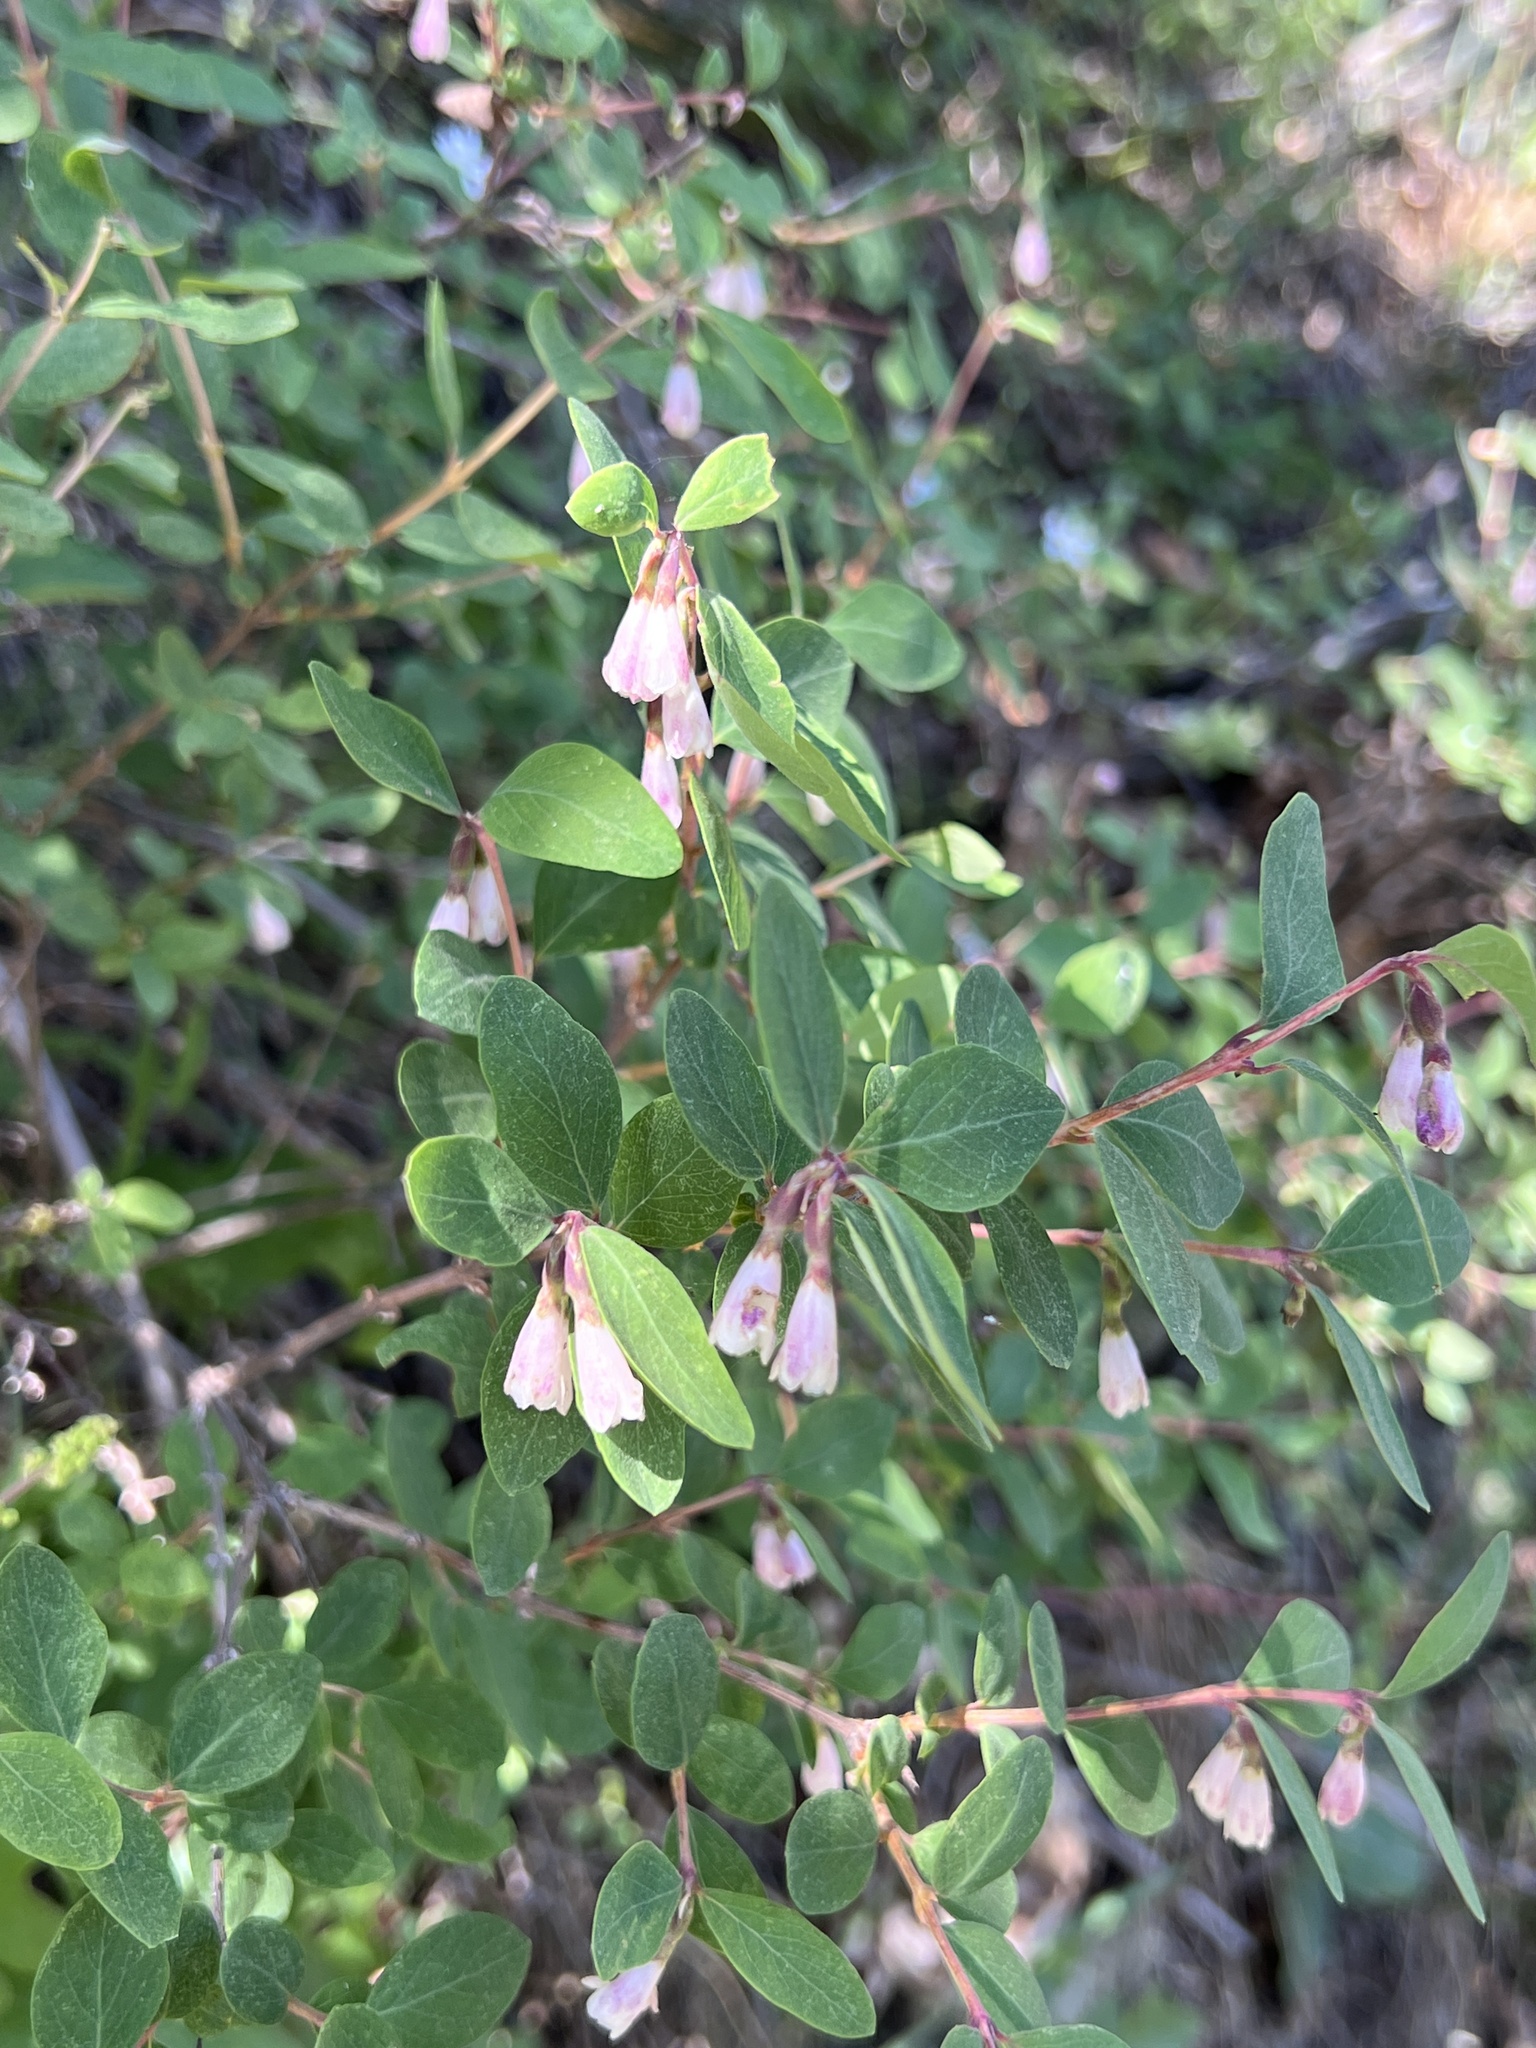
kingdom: Plantae
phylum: Tracheophyta
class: Magnoliopsida
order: Dipsacales
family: Caprifoliaceae
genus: Symphoricarpos
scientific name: Symphoricarpos rotundifolius
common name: Round-leaved snowberry
